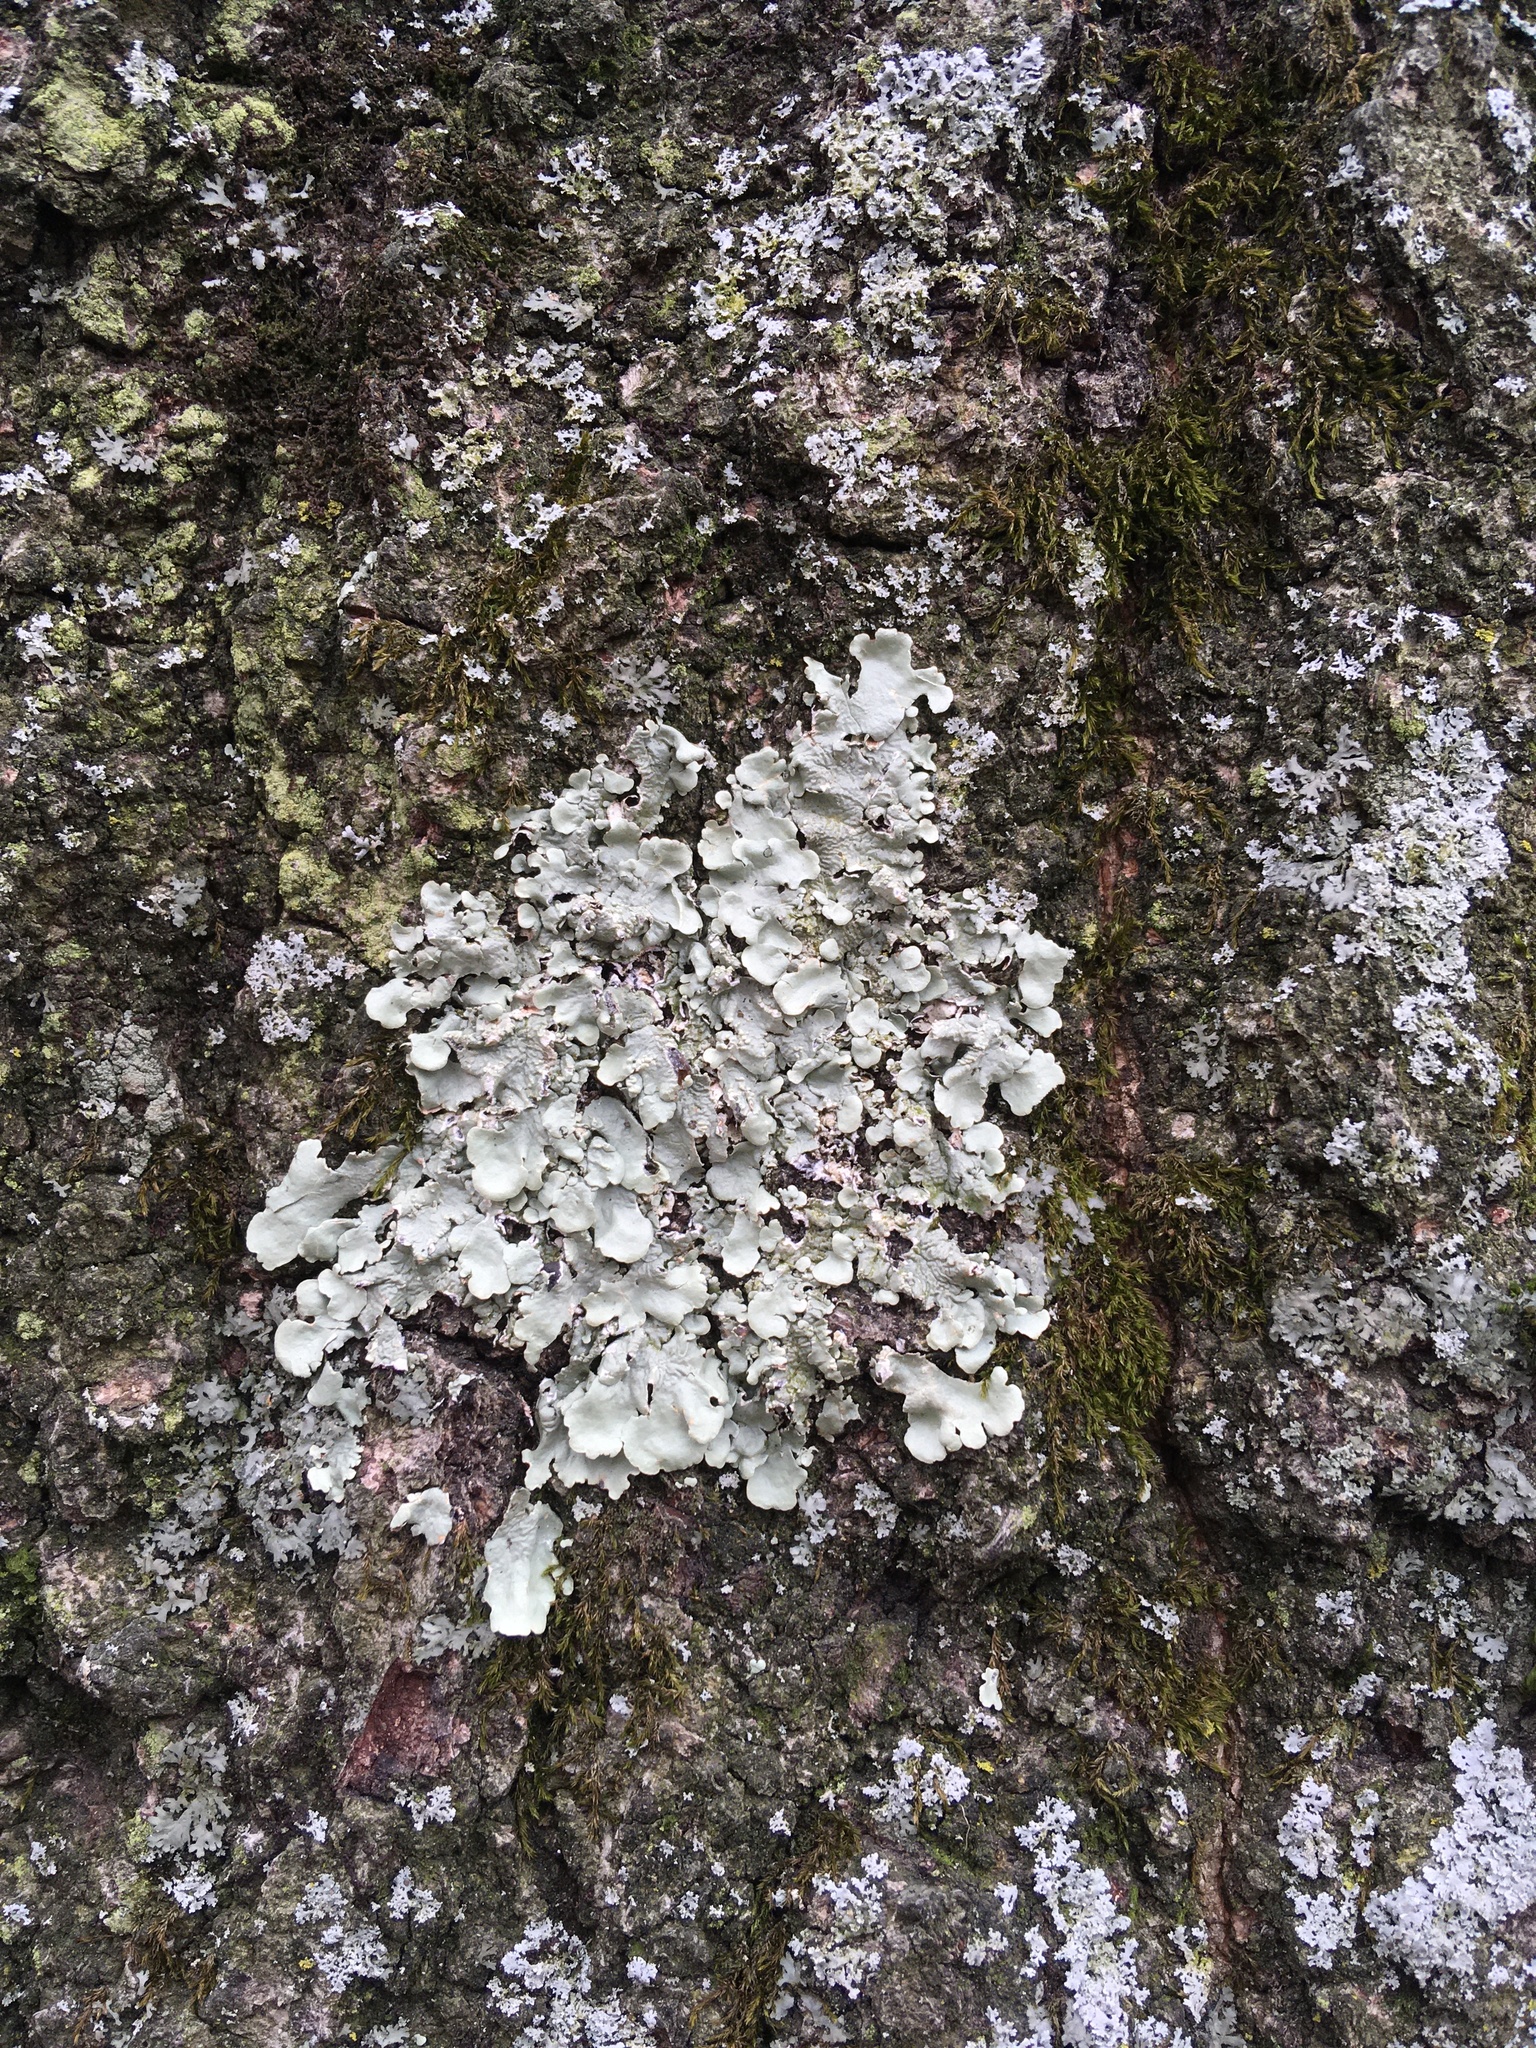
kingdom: Fungi
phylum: Ascomycota
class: Lecanoromycetes
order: Lecanorales
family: Parmeliaceae
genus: Flavoparmelia
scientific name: Flavoparmelia caperata
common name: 40-mile per hour lichen
